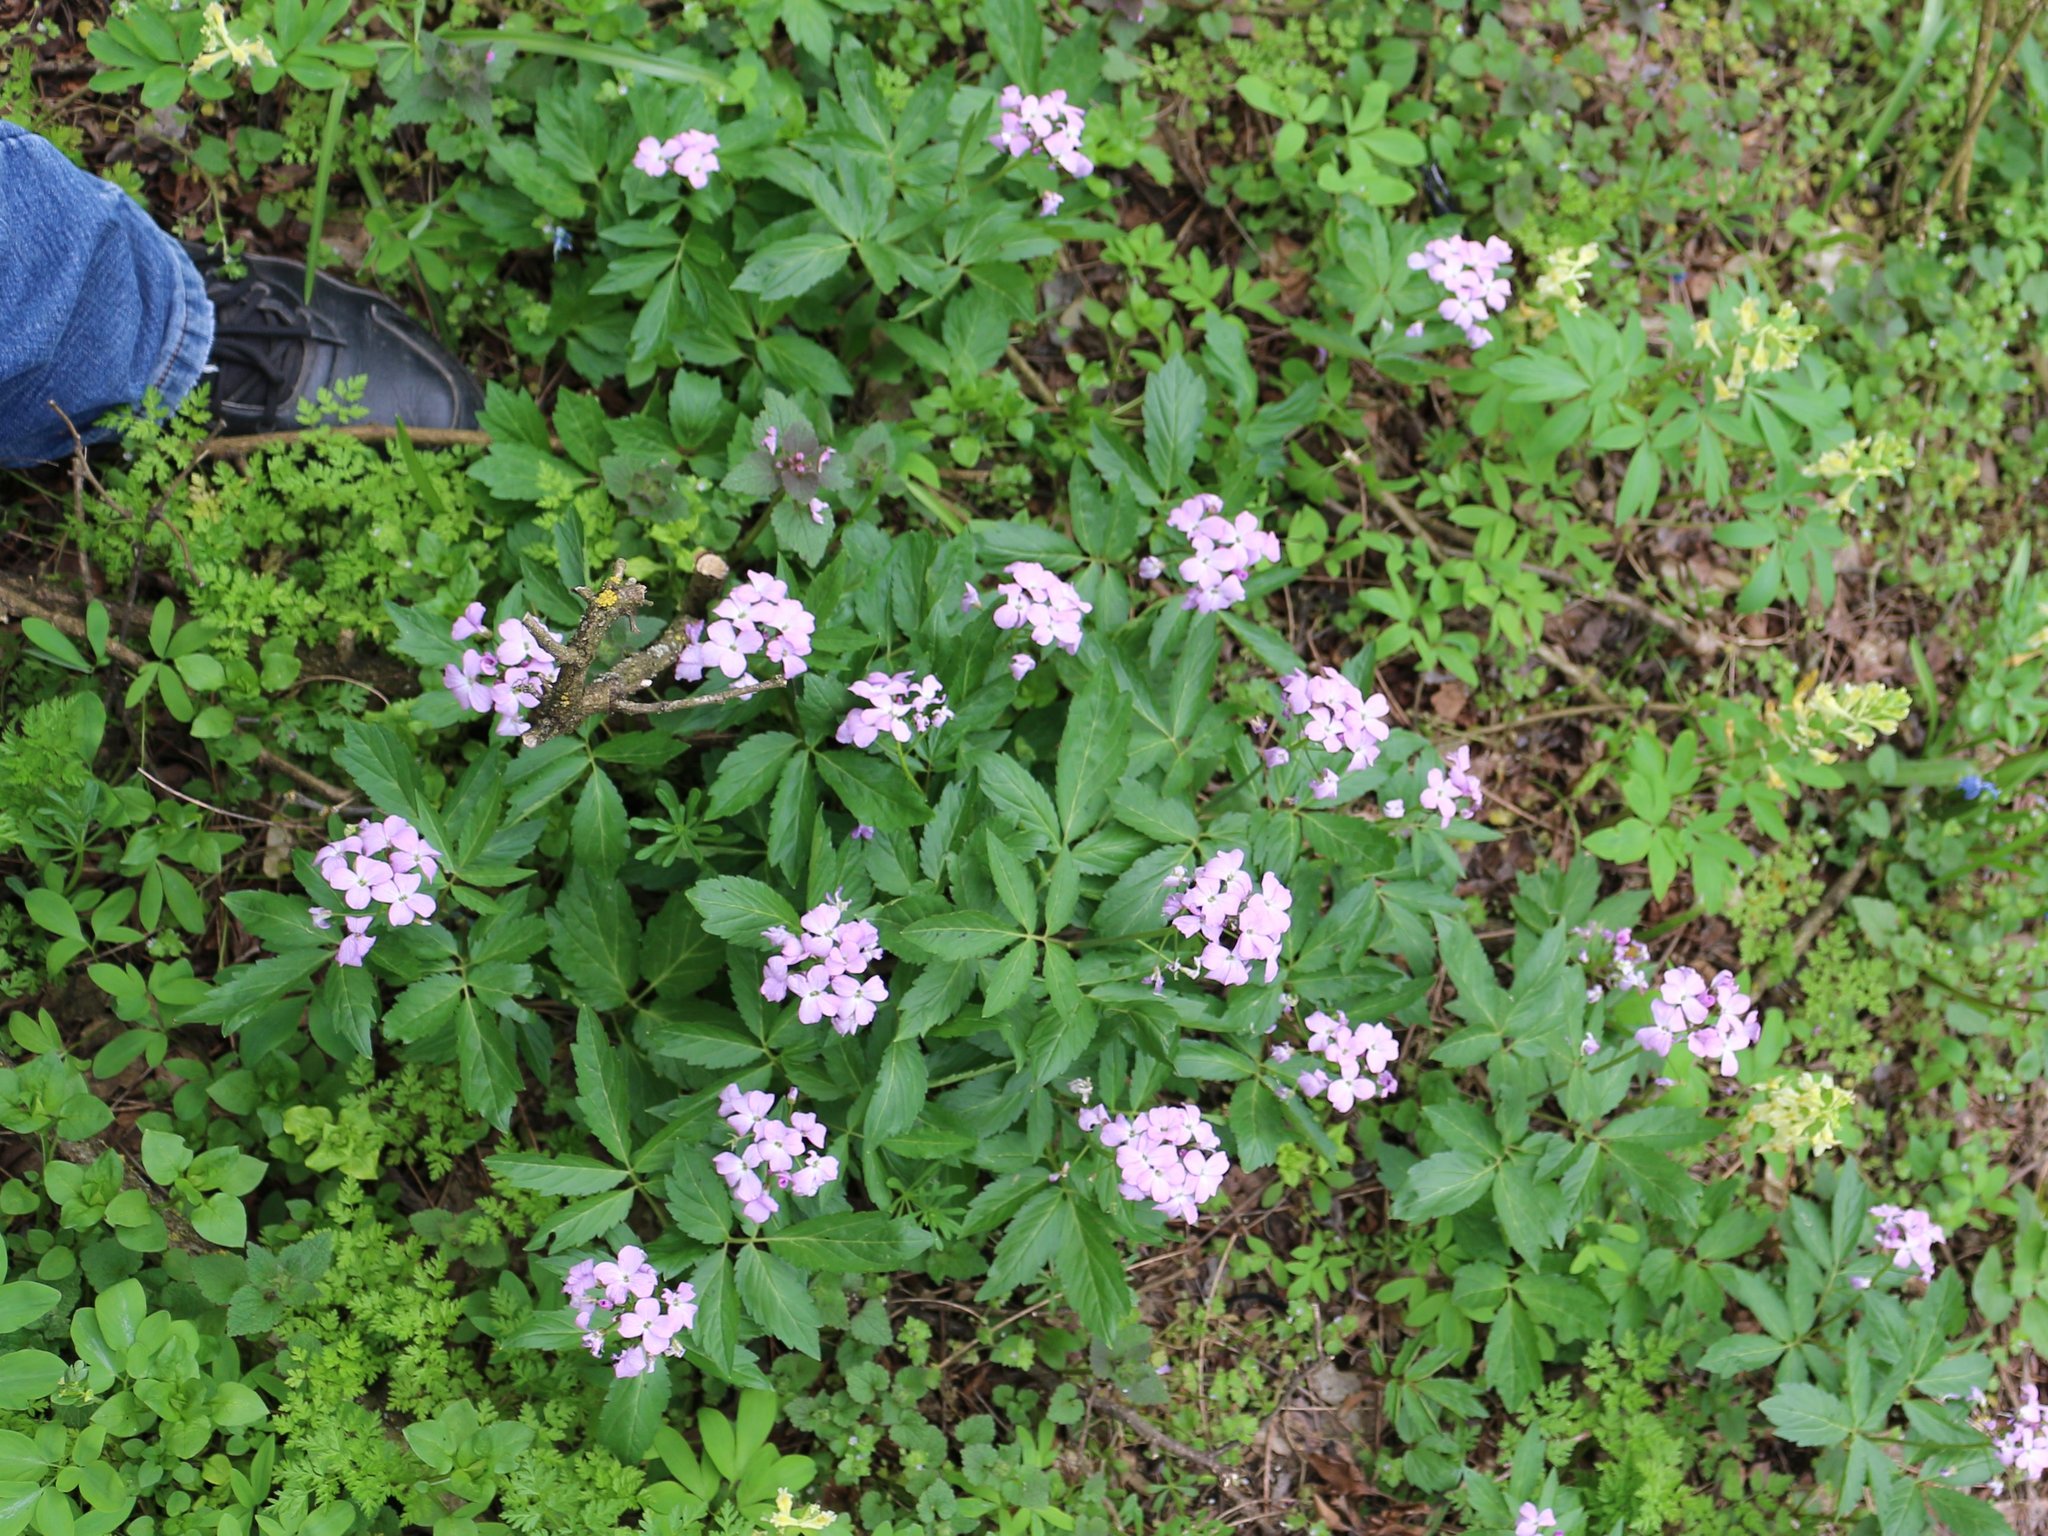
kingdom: Plantae
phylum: Tracheophyta
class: Magnoliopsida
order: Brassicales
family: Brassicaceae
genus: Cardamine
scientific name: Cardamine quinquefolia
